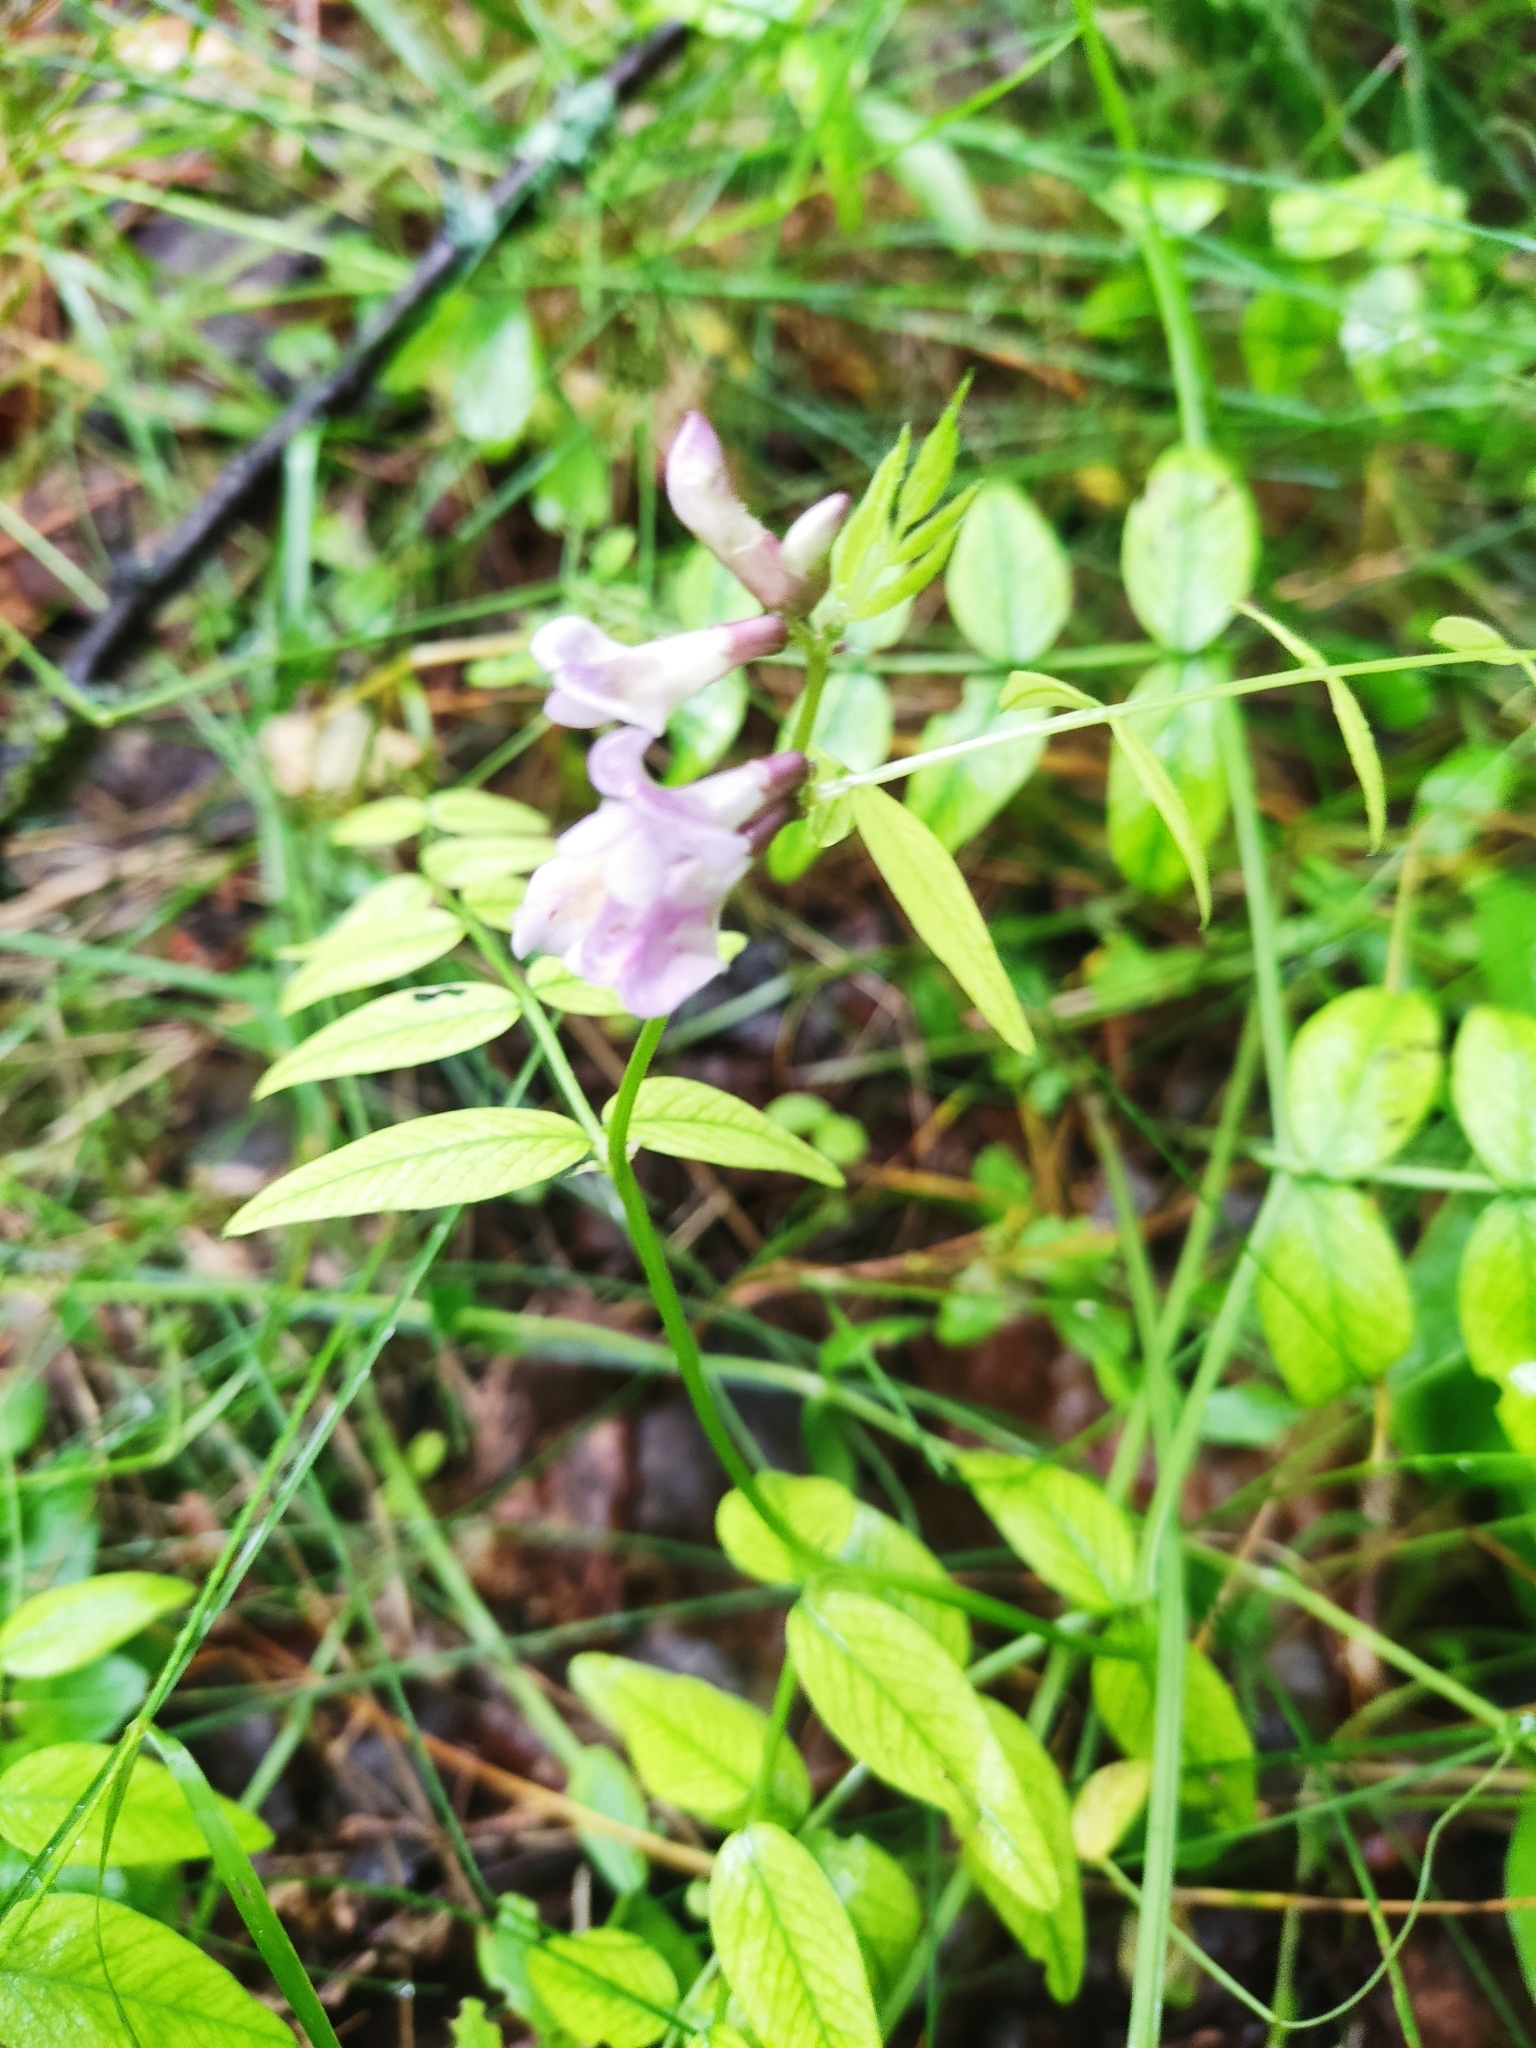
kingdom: Plantae
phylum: Tracheophyta
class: Magnoliopsida
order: Fabales
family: Fabaceae
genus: Vicia
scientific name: Vicia sylvatica
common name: Wood vetch
